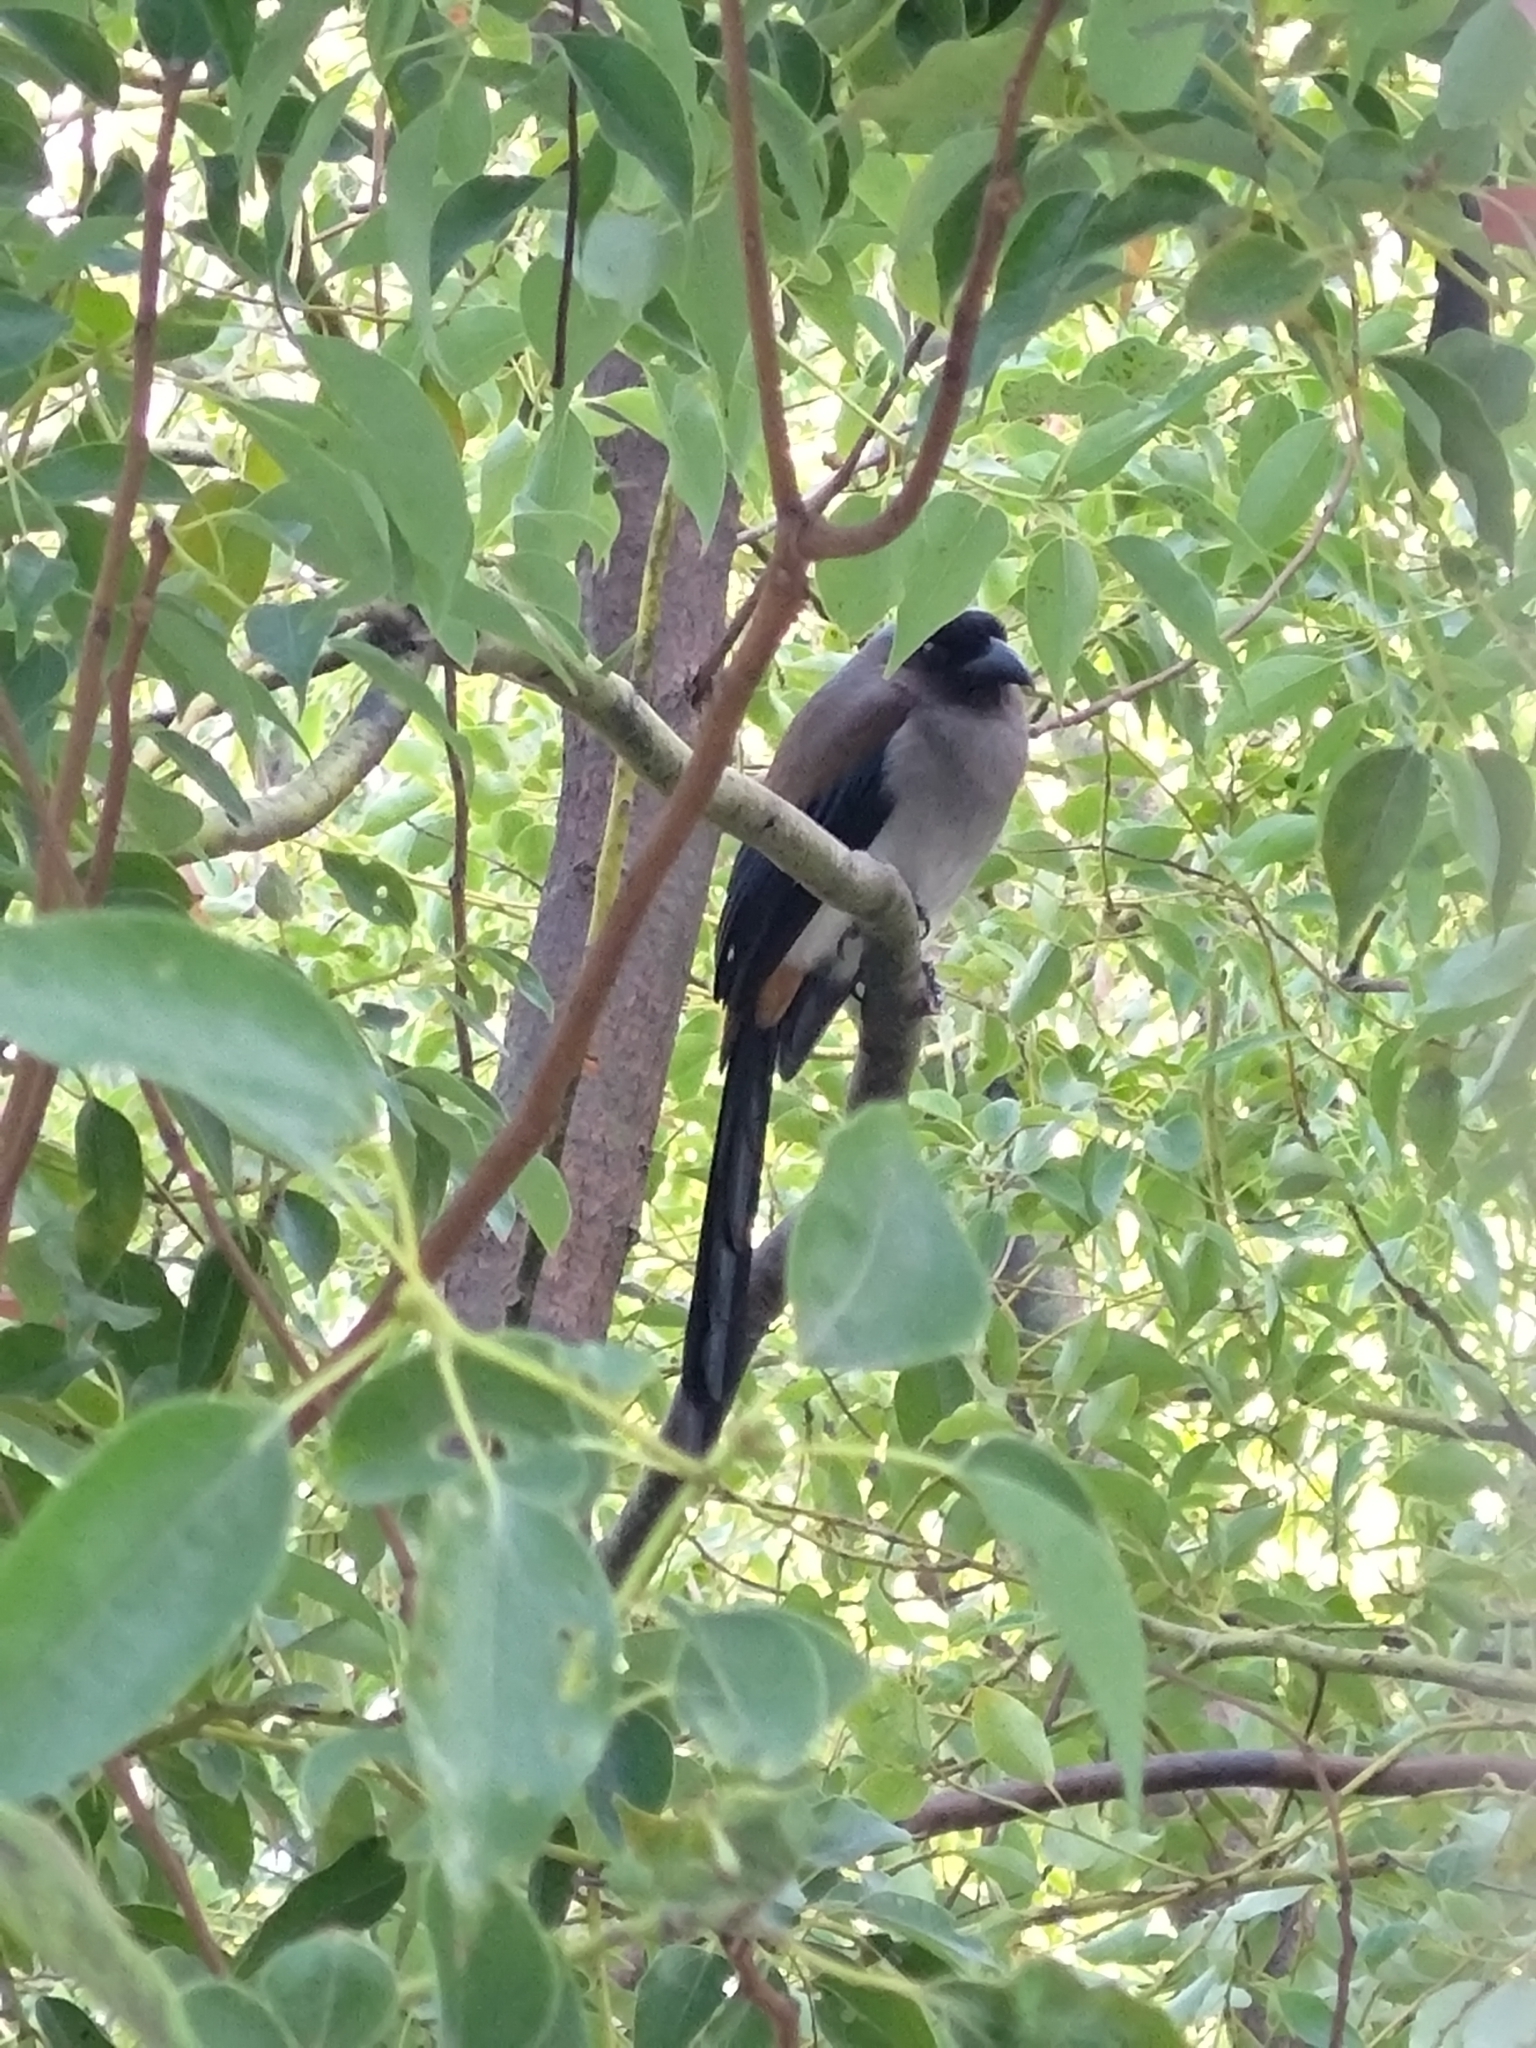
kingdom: Animalia
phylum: Chordata
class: Aves
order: Passeriformes
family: Corvidae
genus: Dendrocitta
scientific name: Dendrocitta formosae
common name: Grey treepie
